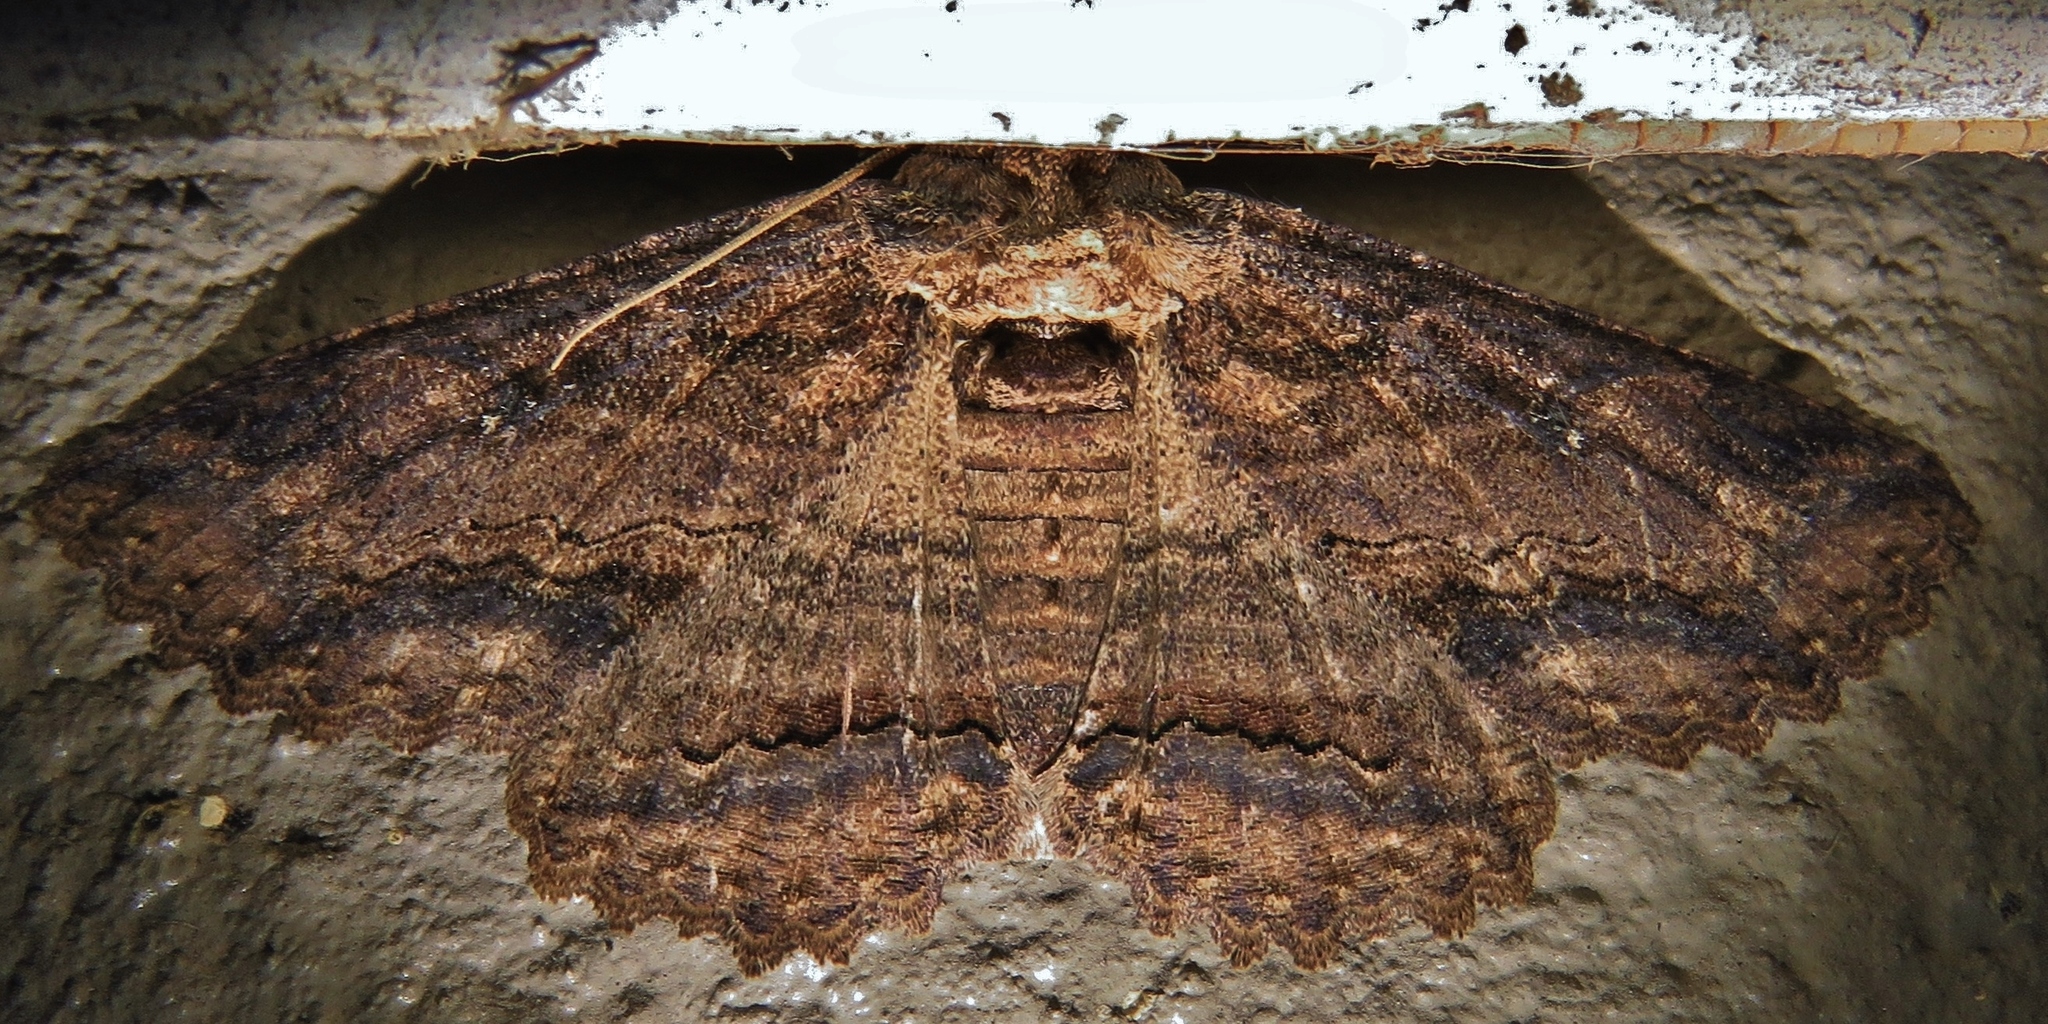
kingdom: Animalia
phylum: Arthropoda
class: Insecta
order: Lepidoptera
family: Erebidae
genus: Zale
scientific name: Zale lunata
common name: Lunate zale moth
